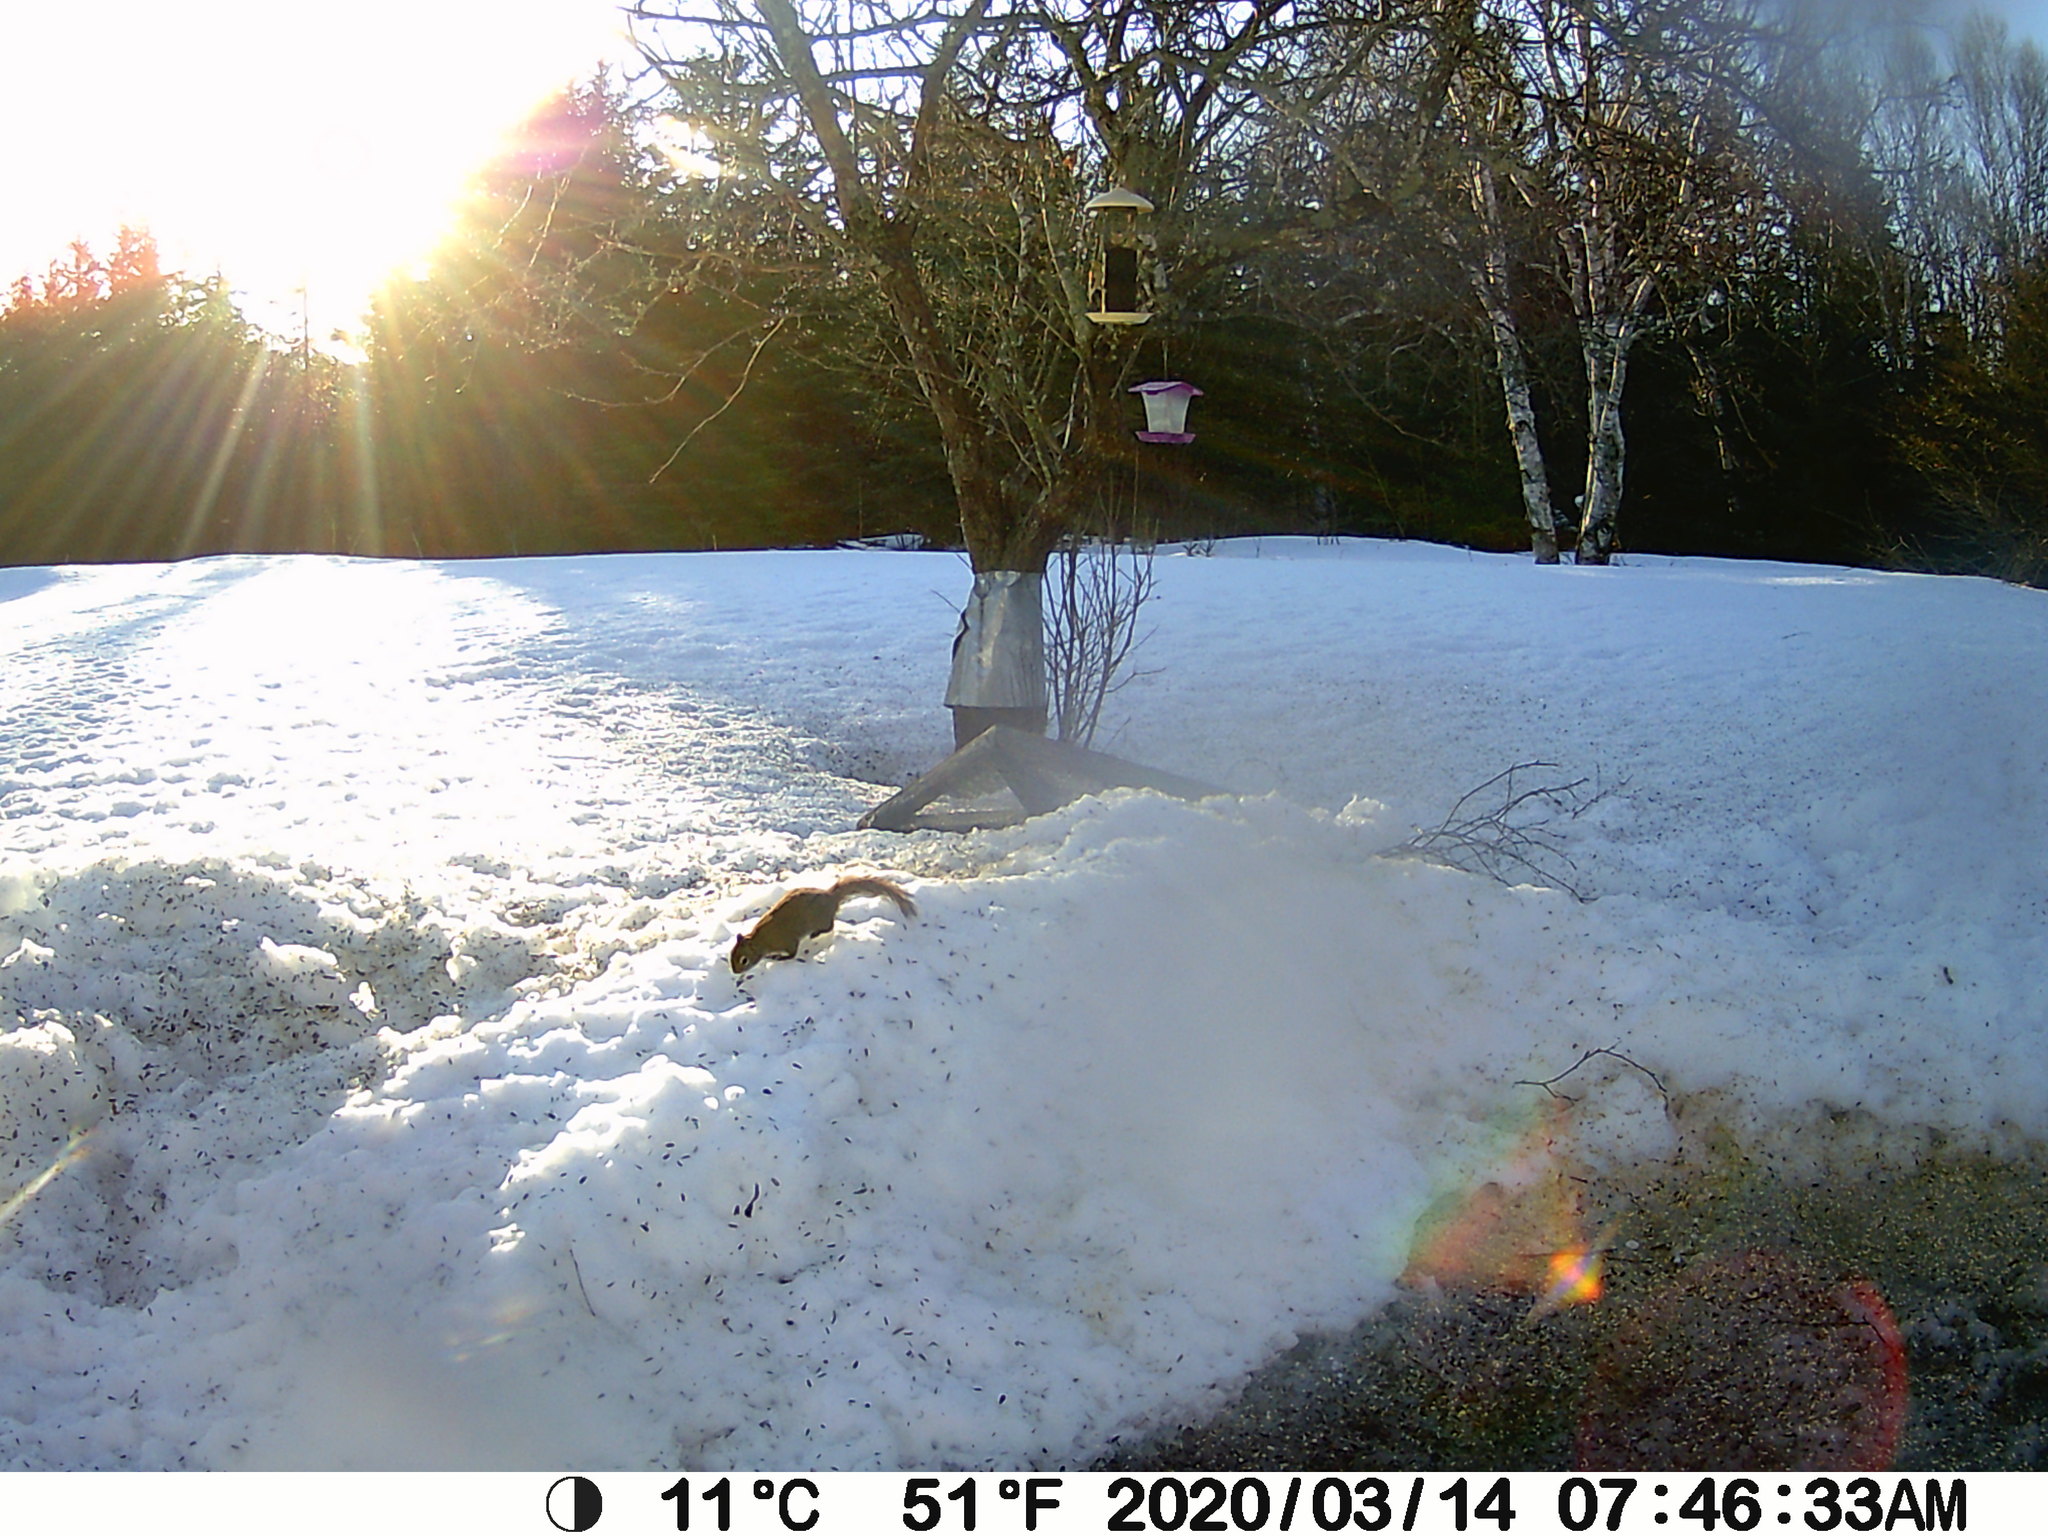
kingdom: Animalia
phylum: Chordata
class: Mammalia
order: Rodentia
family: Sciuridae
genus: Tamiasciurus
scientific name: Tamiasciurus hudsonicus
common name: Red squirrel
